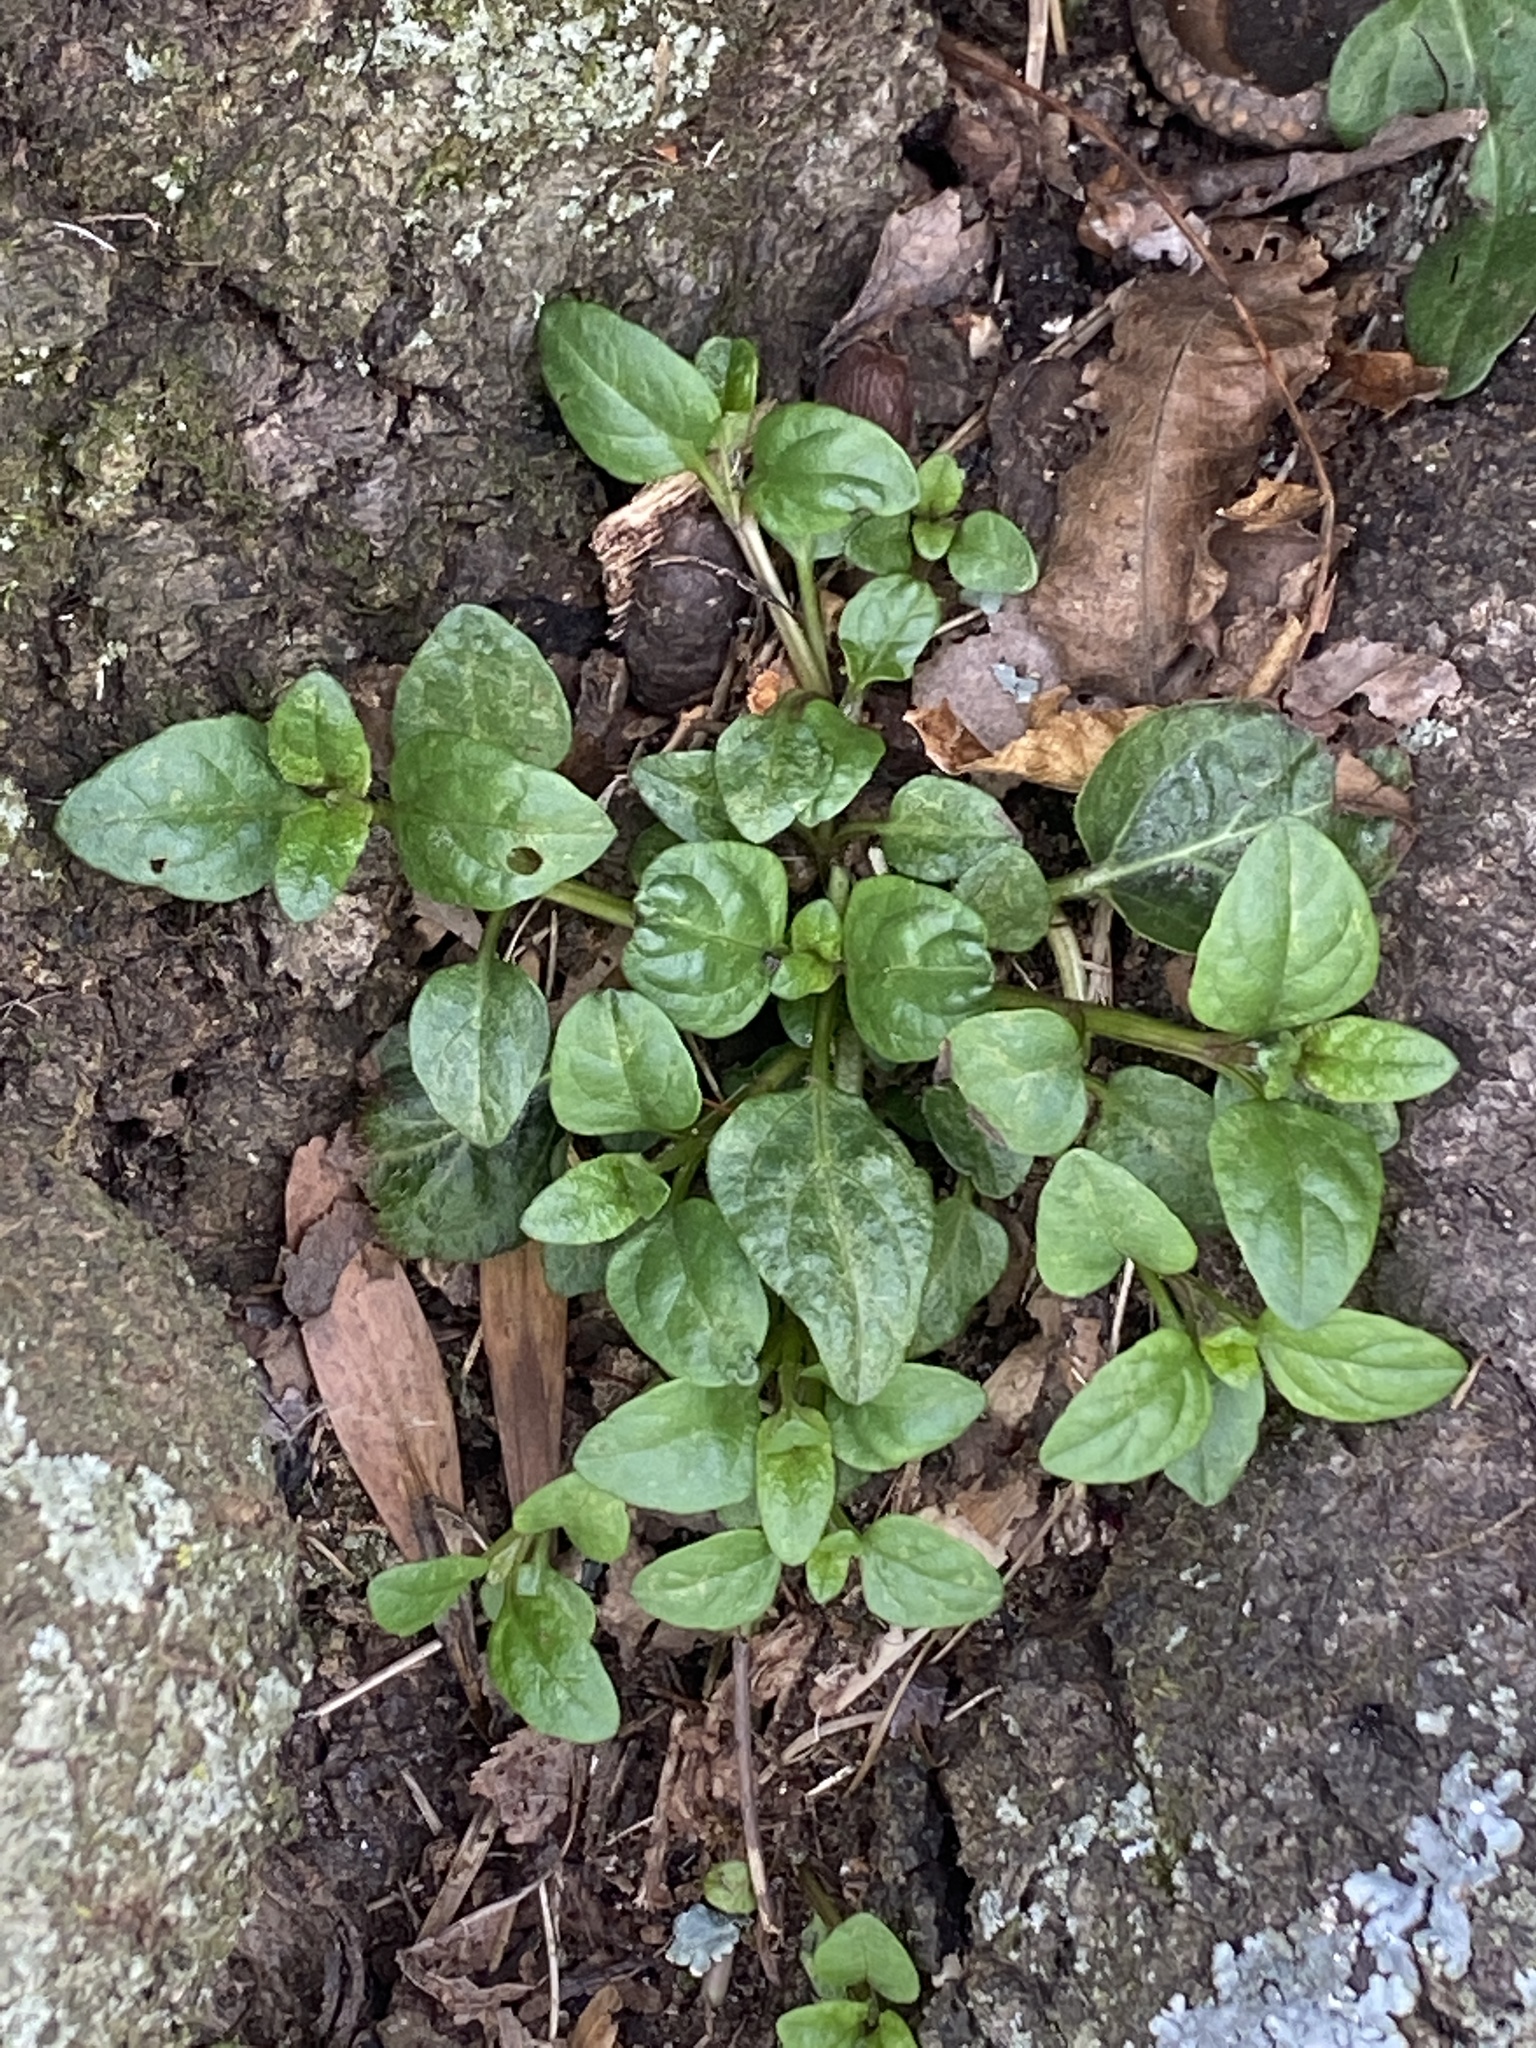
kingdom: Plantae
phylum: Tracheophyta
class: Magnoliopsida
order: Lamiales
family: Lamiaceae
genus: Prunella
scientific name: Prunella vulgaris
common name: Heal-all
